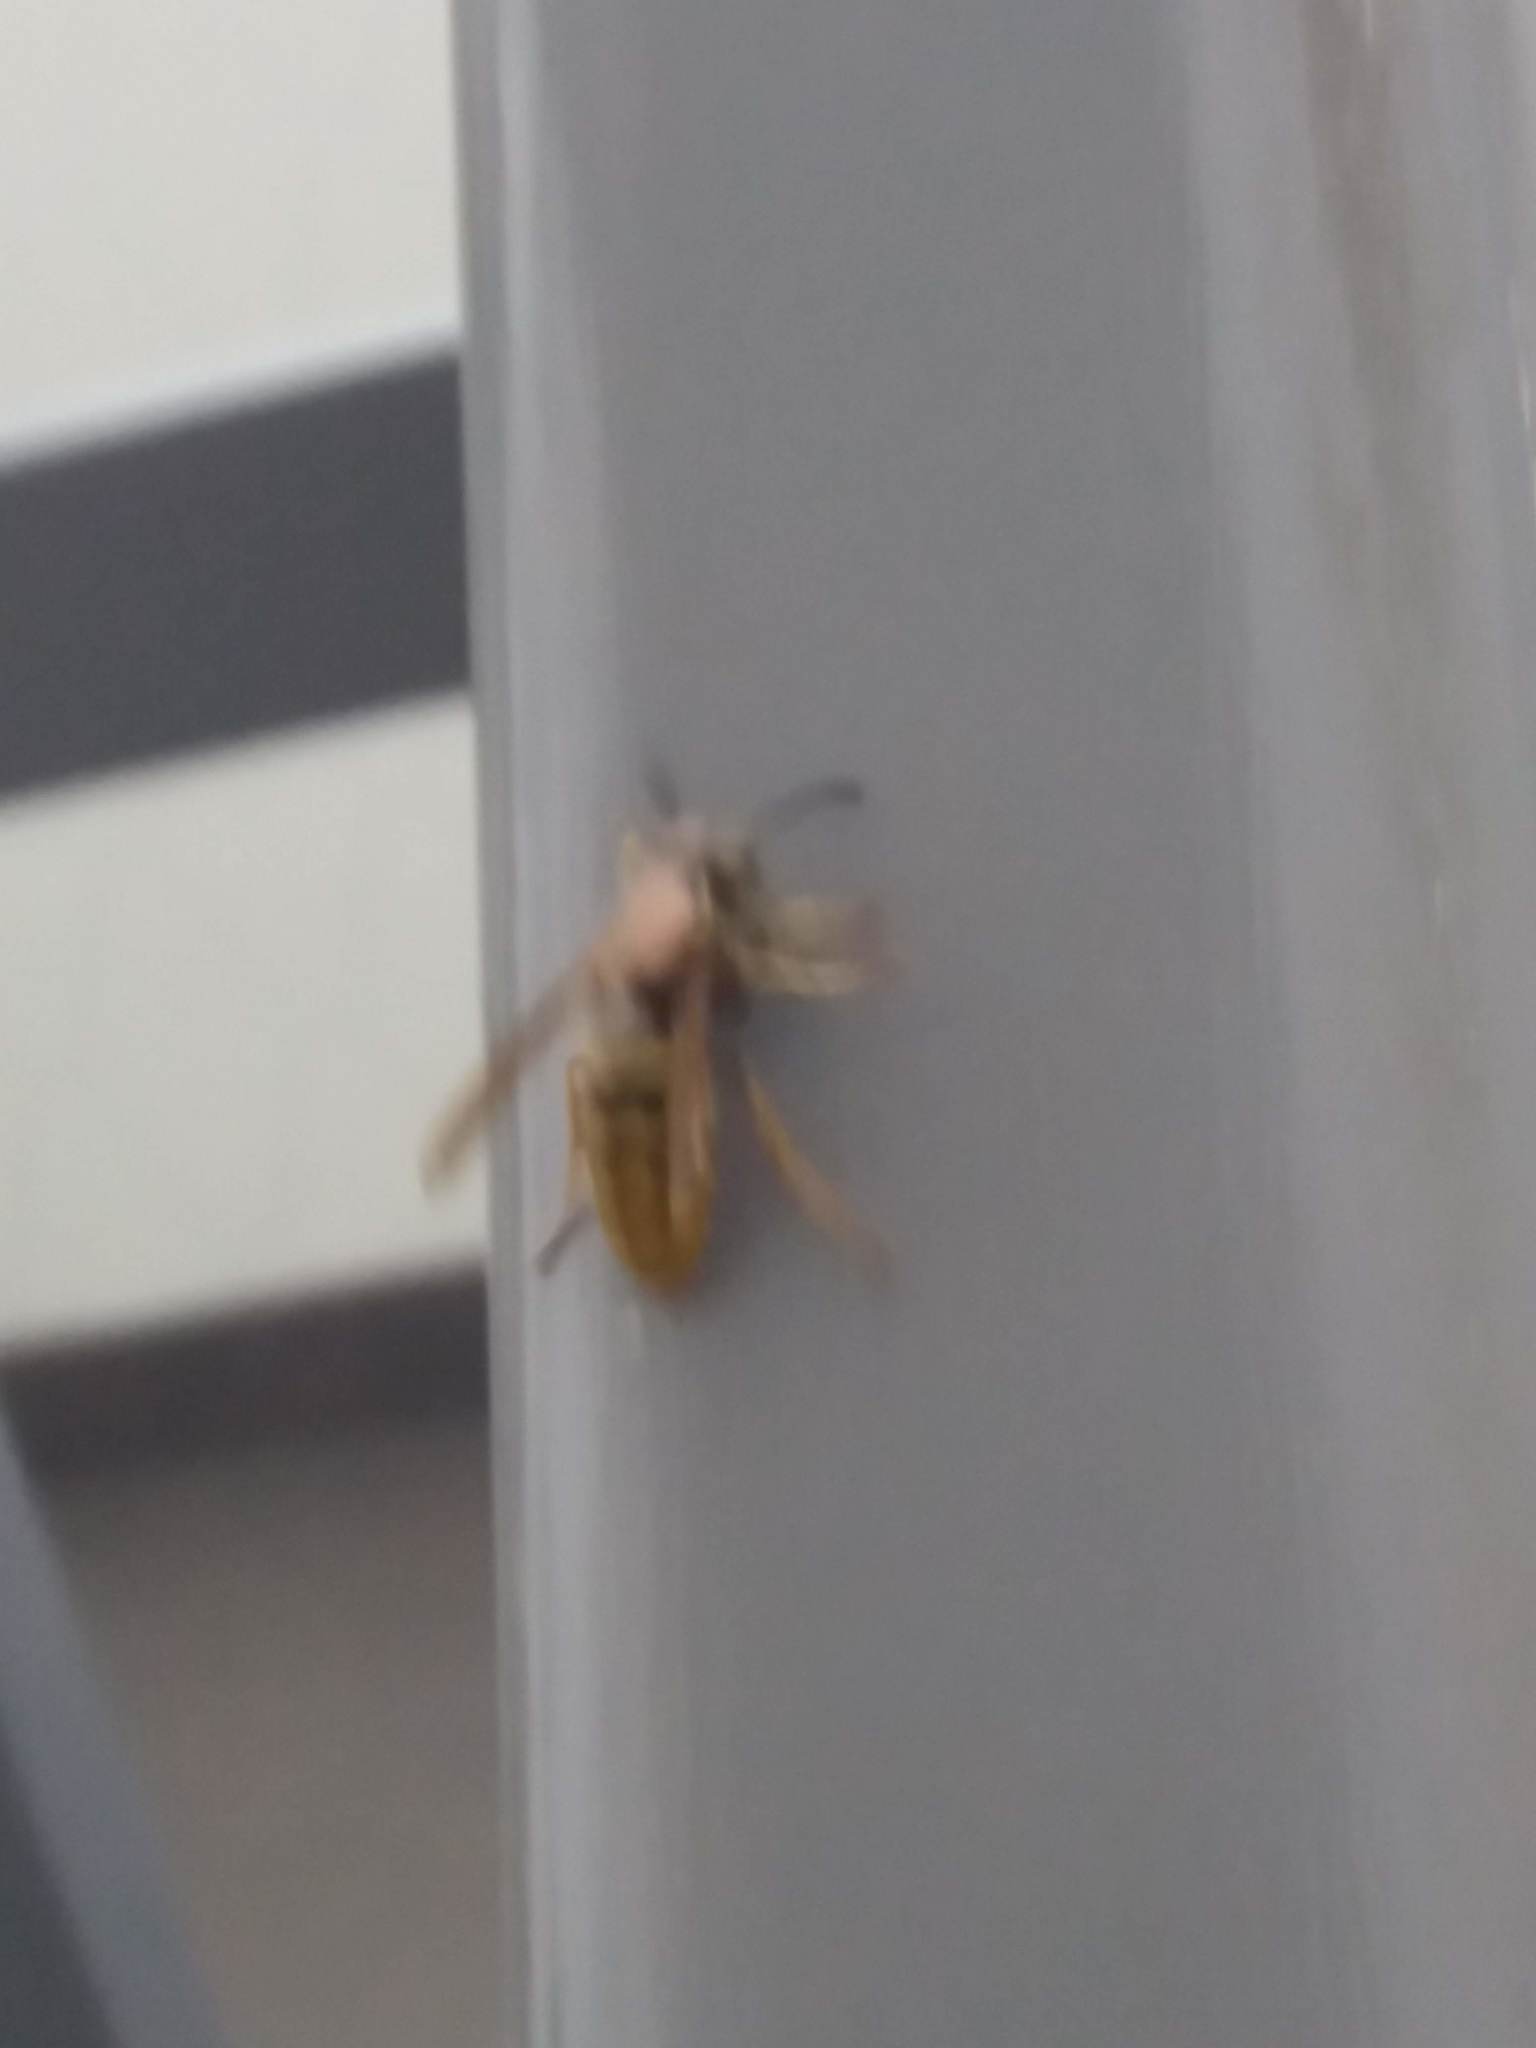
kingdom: Animalia
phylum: Arthropoda
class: Insecta
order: Hymenoptera
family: Vespidae
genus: Vespa
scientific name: Vespa crabro
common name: Hornet
